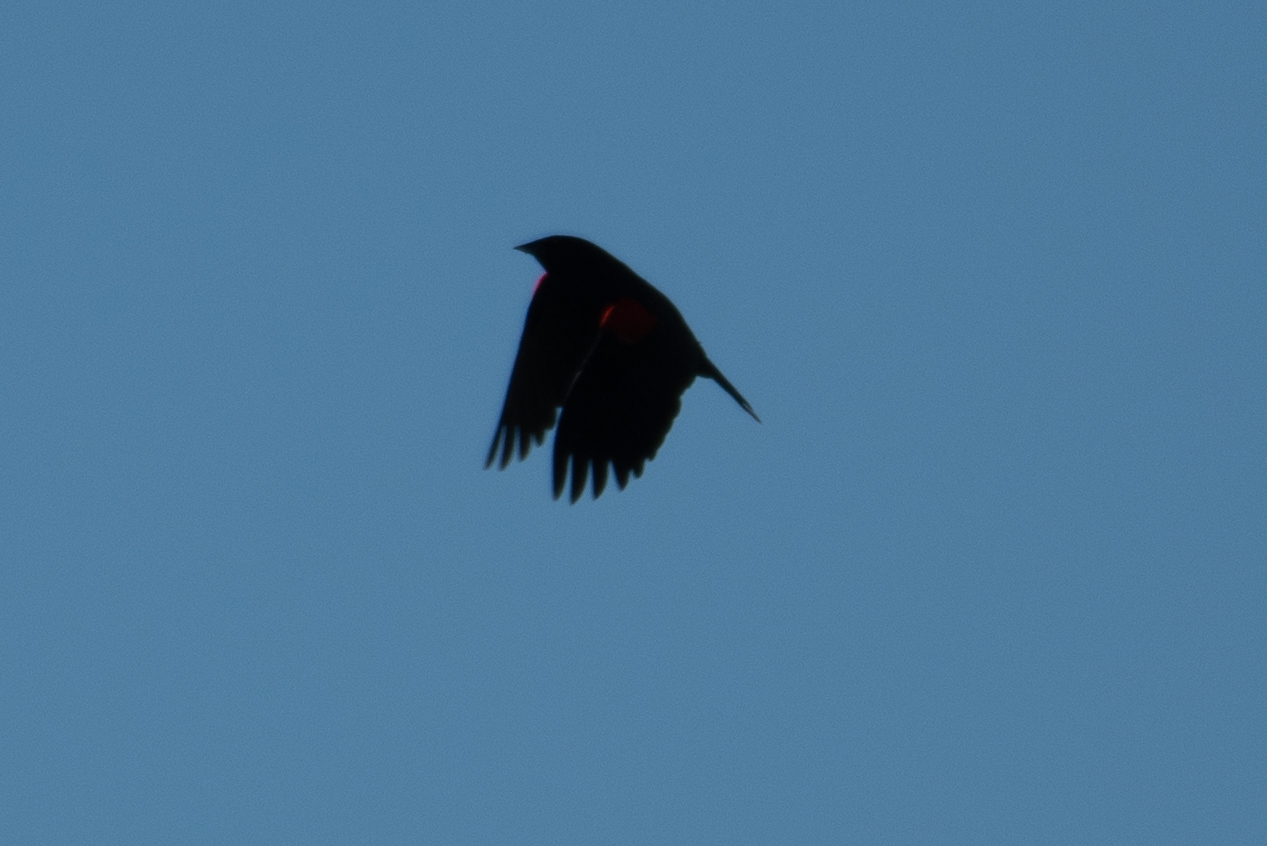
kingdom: Animalia
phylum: Chordata
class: Aves
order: Passeriformes
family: Icteridae
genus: Agelaius
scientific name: Agelaius phoeniceus
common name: Red-winged blackbird
